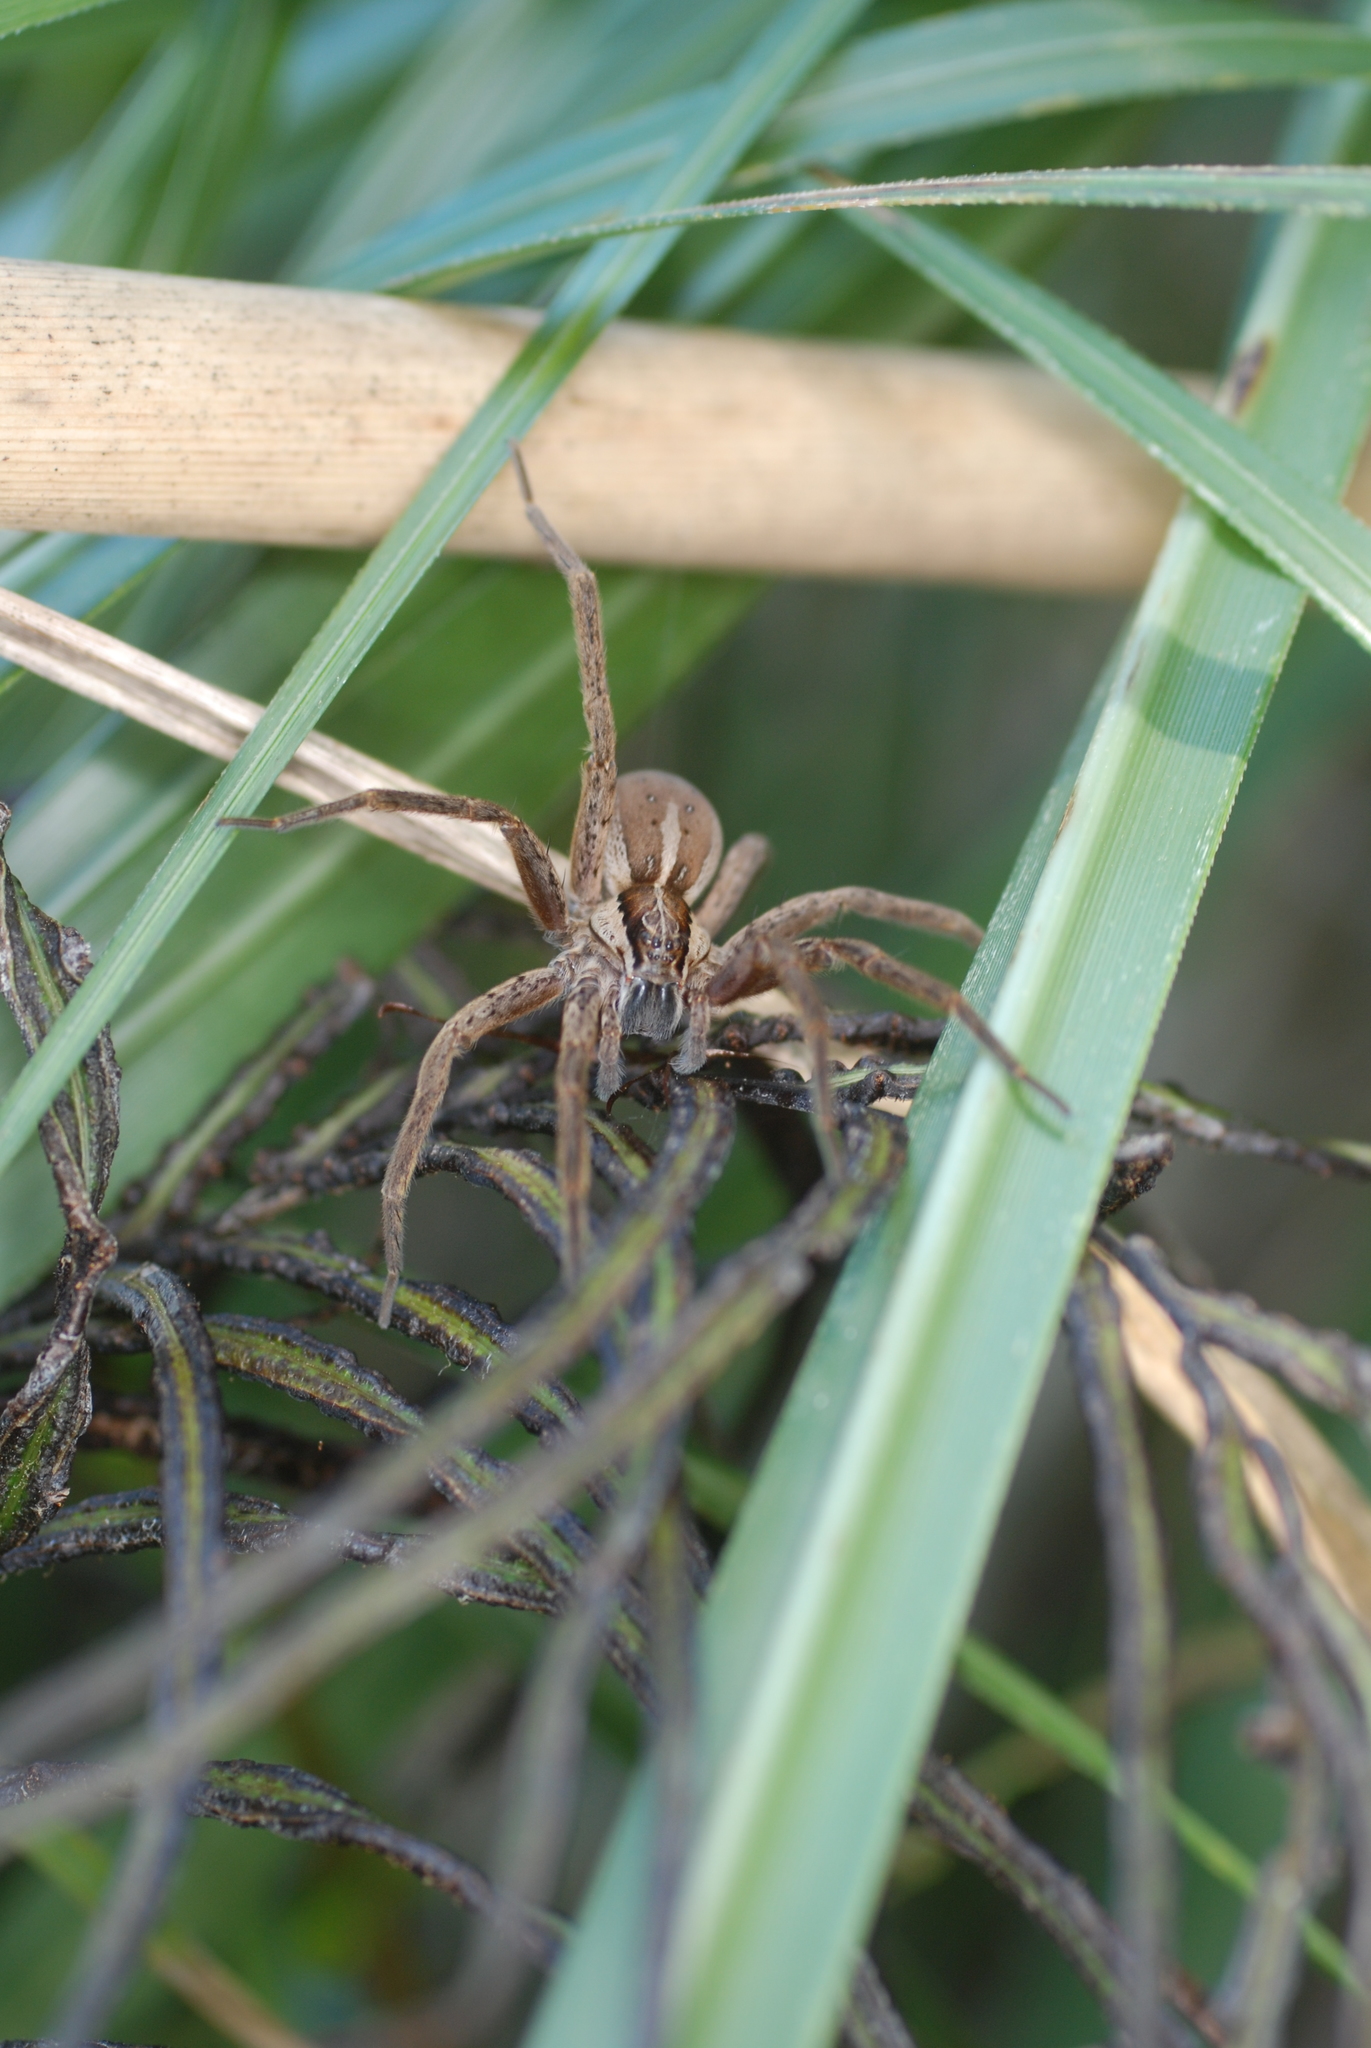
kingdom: Animalia
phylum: Arthropoda
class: Arachnida
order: Araneae
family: Pisauridae
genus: Dolomedes
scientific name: Dolomedes minor
